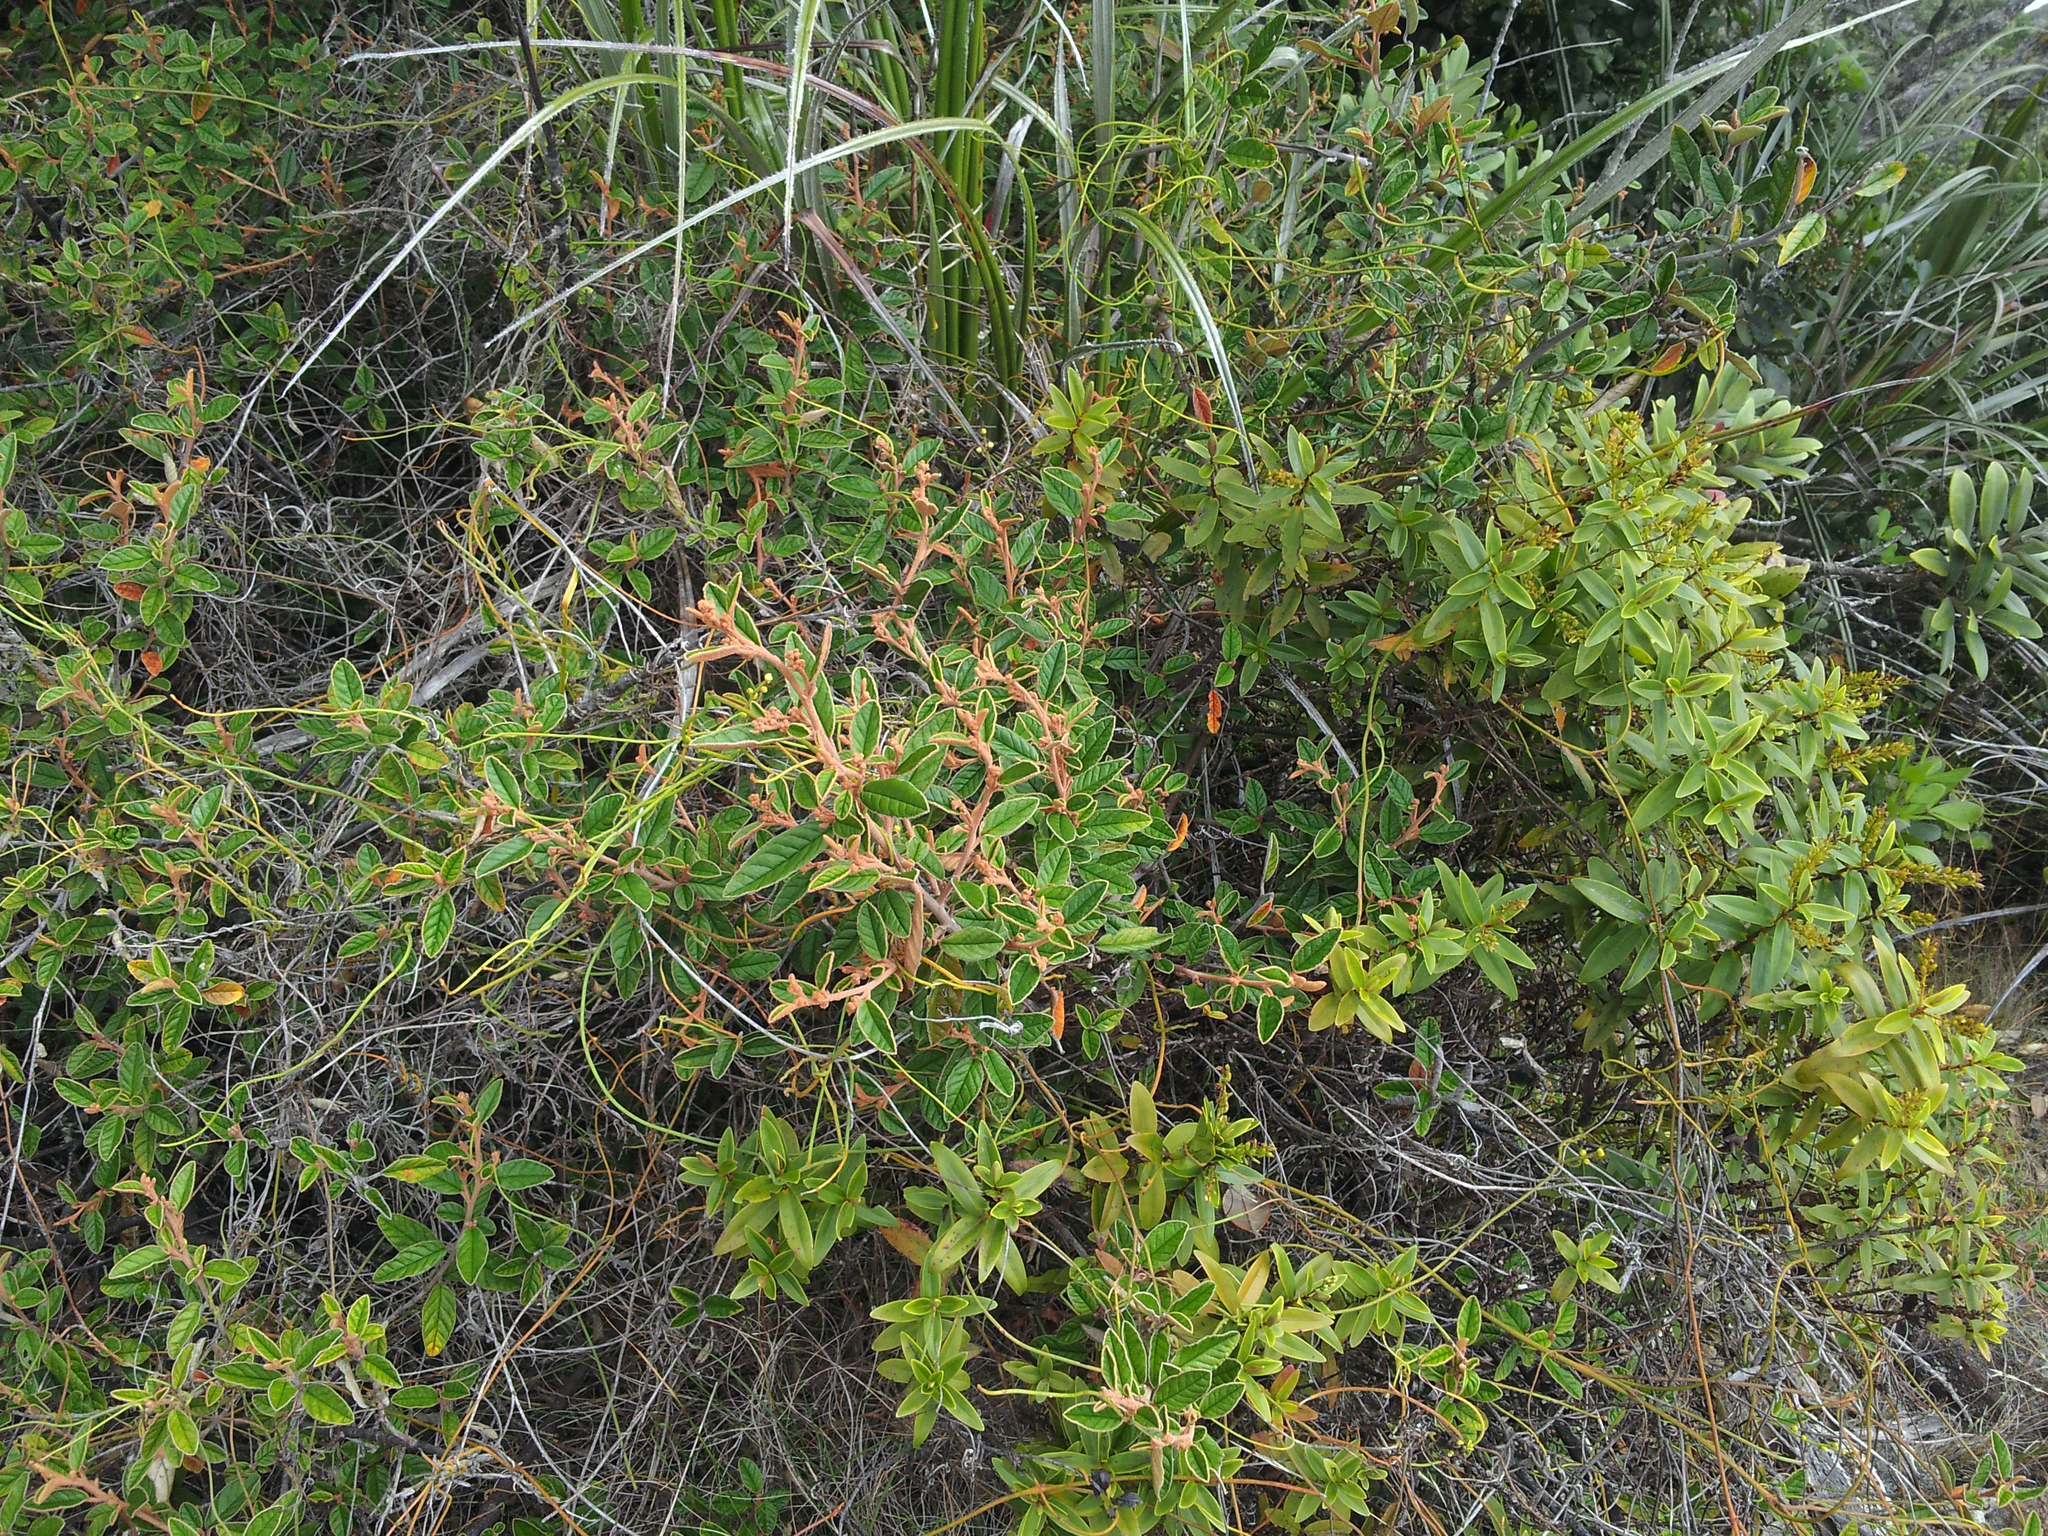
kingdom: Plantae
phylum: Tracheophyta
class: Magnoliopsida
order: Rosales
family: Rhamnaceae
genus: Pomaderris
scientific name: Pomaderris paniculosa
